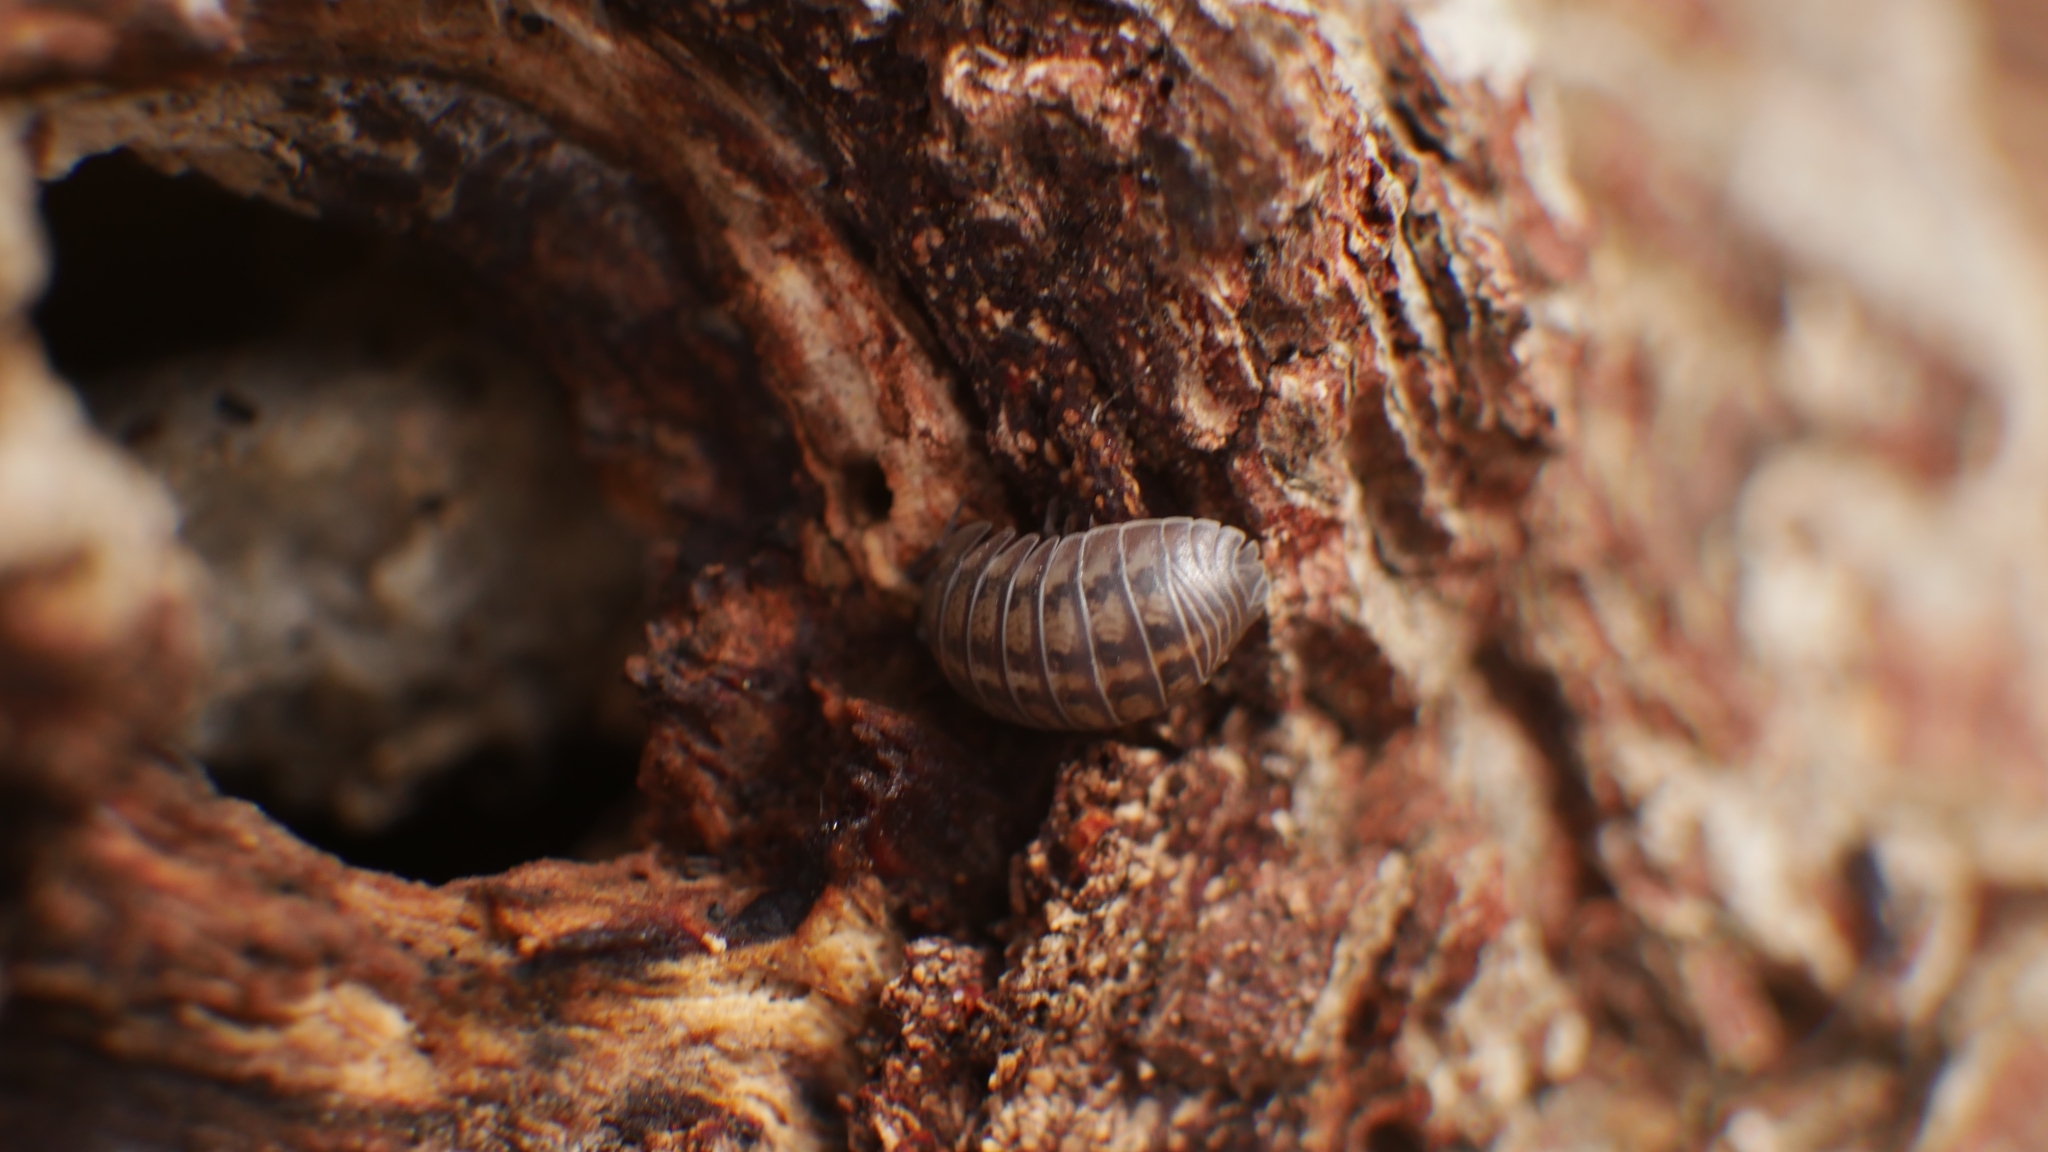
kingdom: Animalia
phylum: Arthropoda
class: Malacostraca
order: Isopoda
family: Armadillidiidae
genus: Armadillidium
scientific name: Armadillidium nasatum
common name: Isopod
